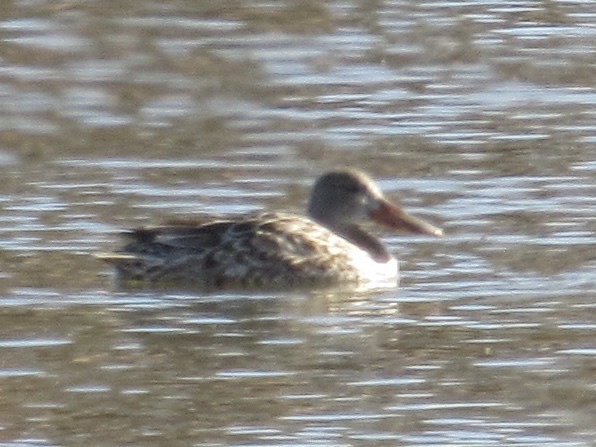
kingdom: Animalia
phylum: Chordata
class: Aves
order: Anseriformes
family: Anatidae
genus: Spatula
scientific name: Spatula clypeata
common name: Northern shoveler
